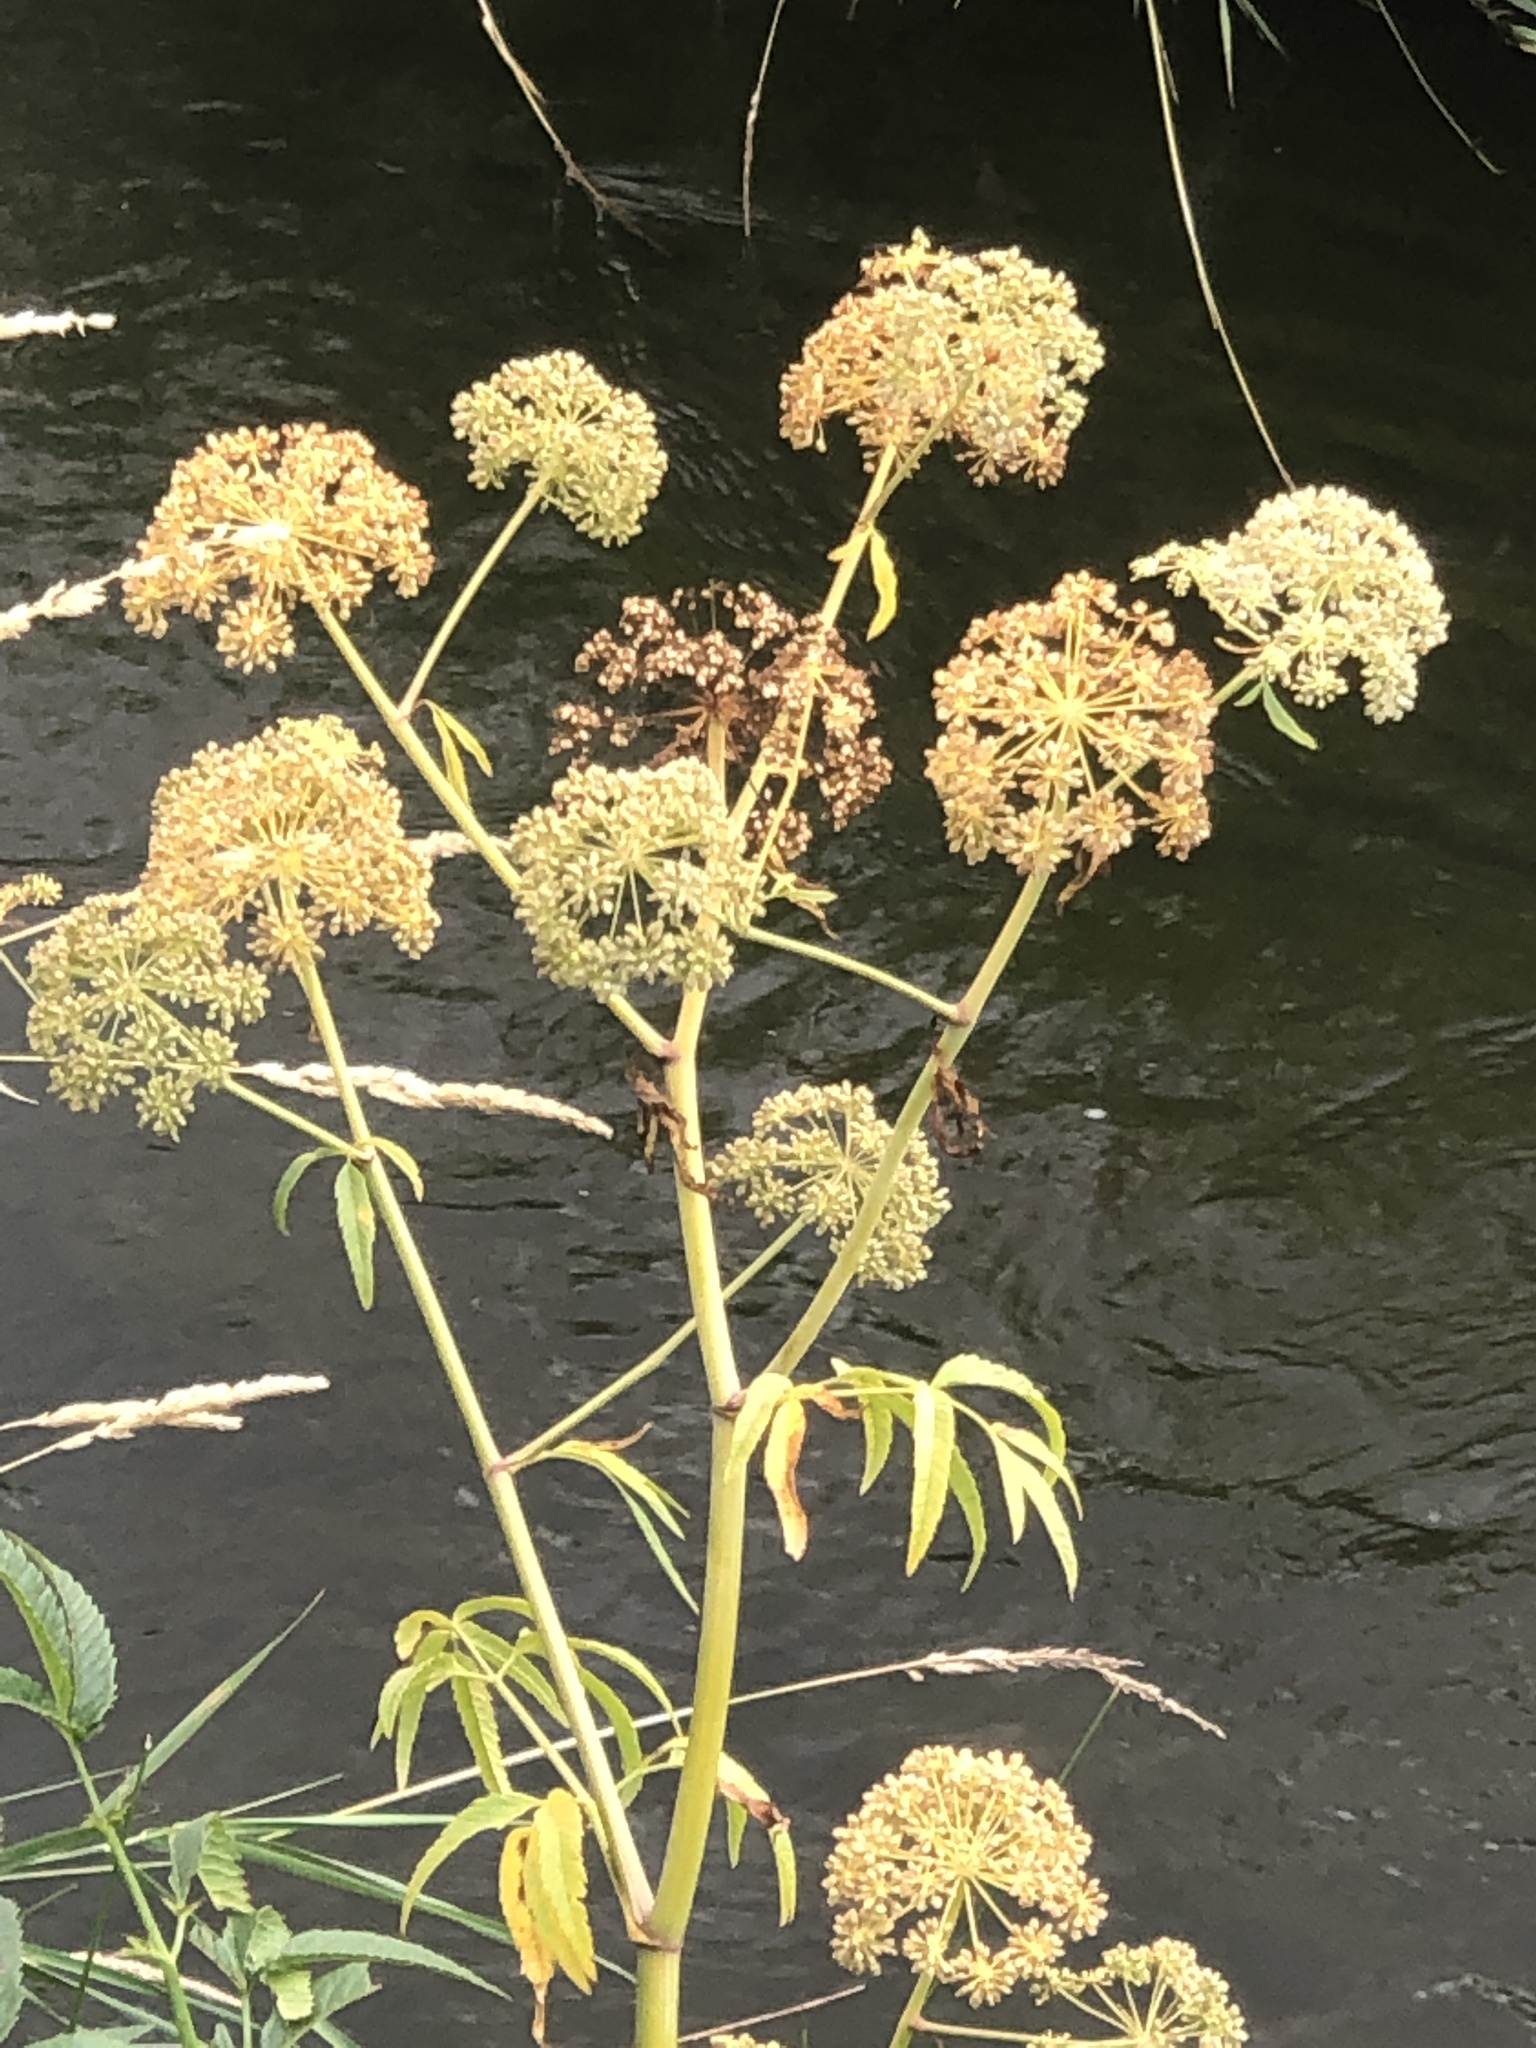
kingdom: Plantae
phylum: Tracheophyta
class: Magnoliopsida
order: Apiales
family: Apiaceae
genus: Cicuta
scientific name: Cicuta maculata
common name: Spotted cowbane
